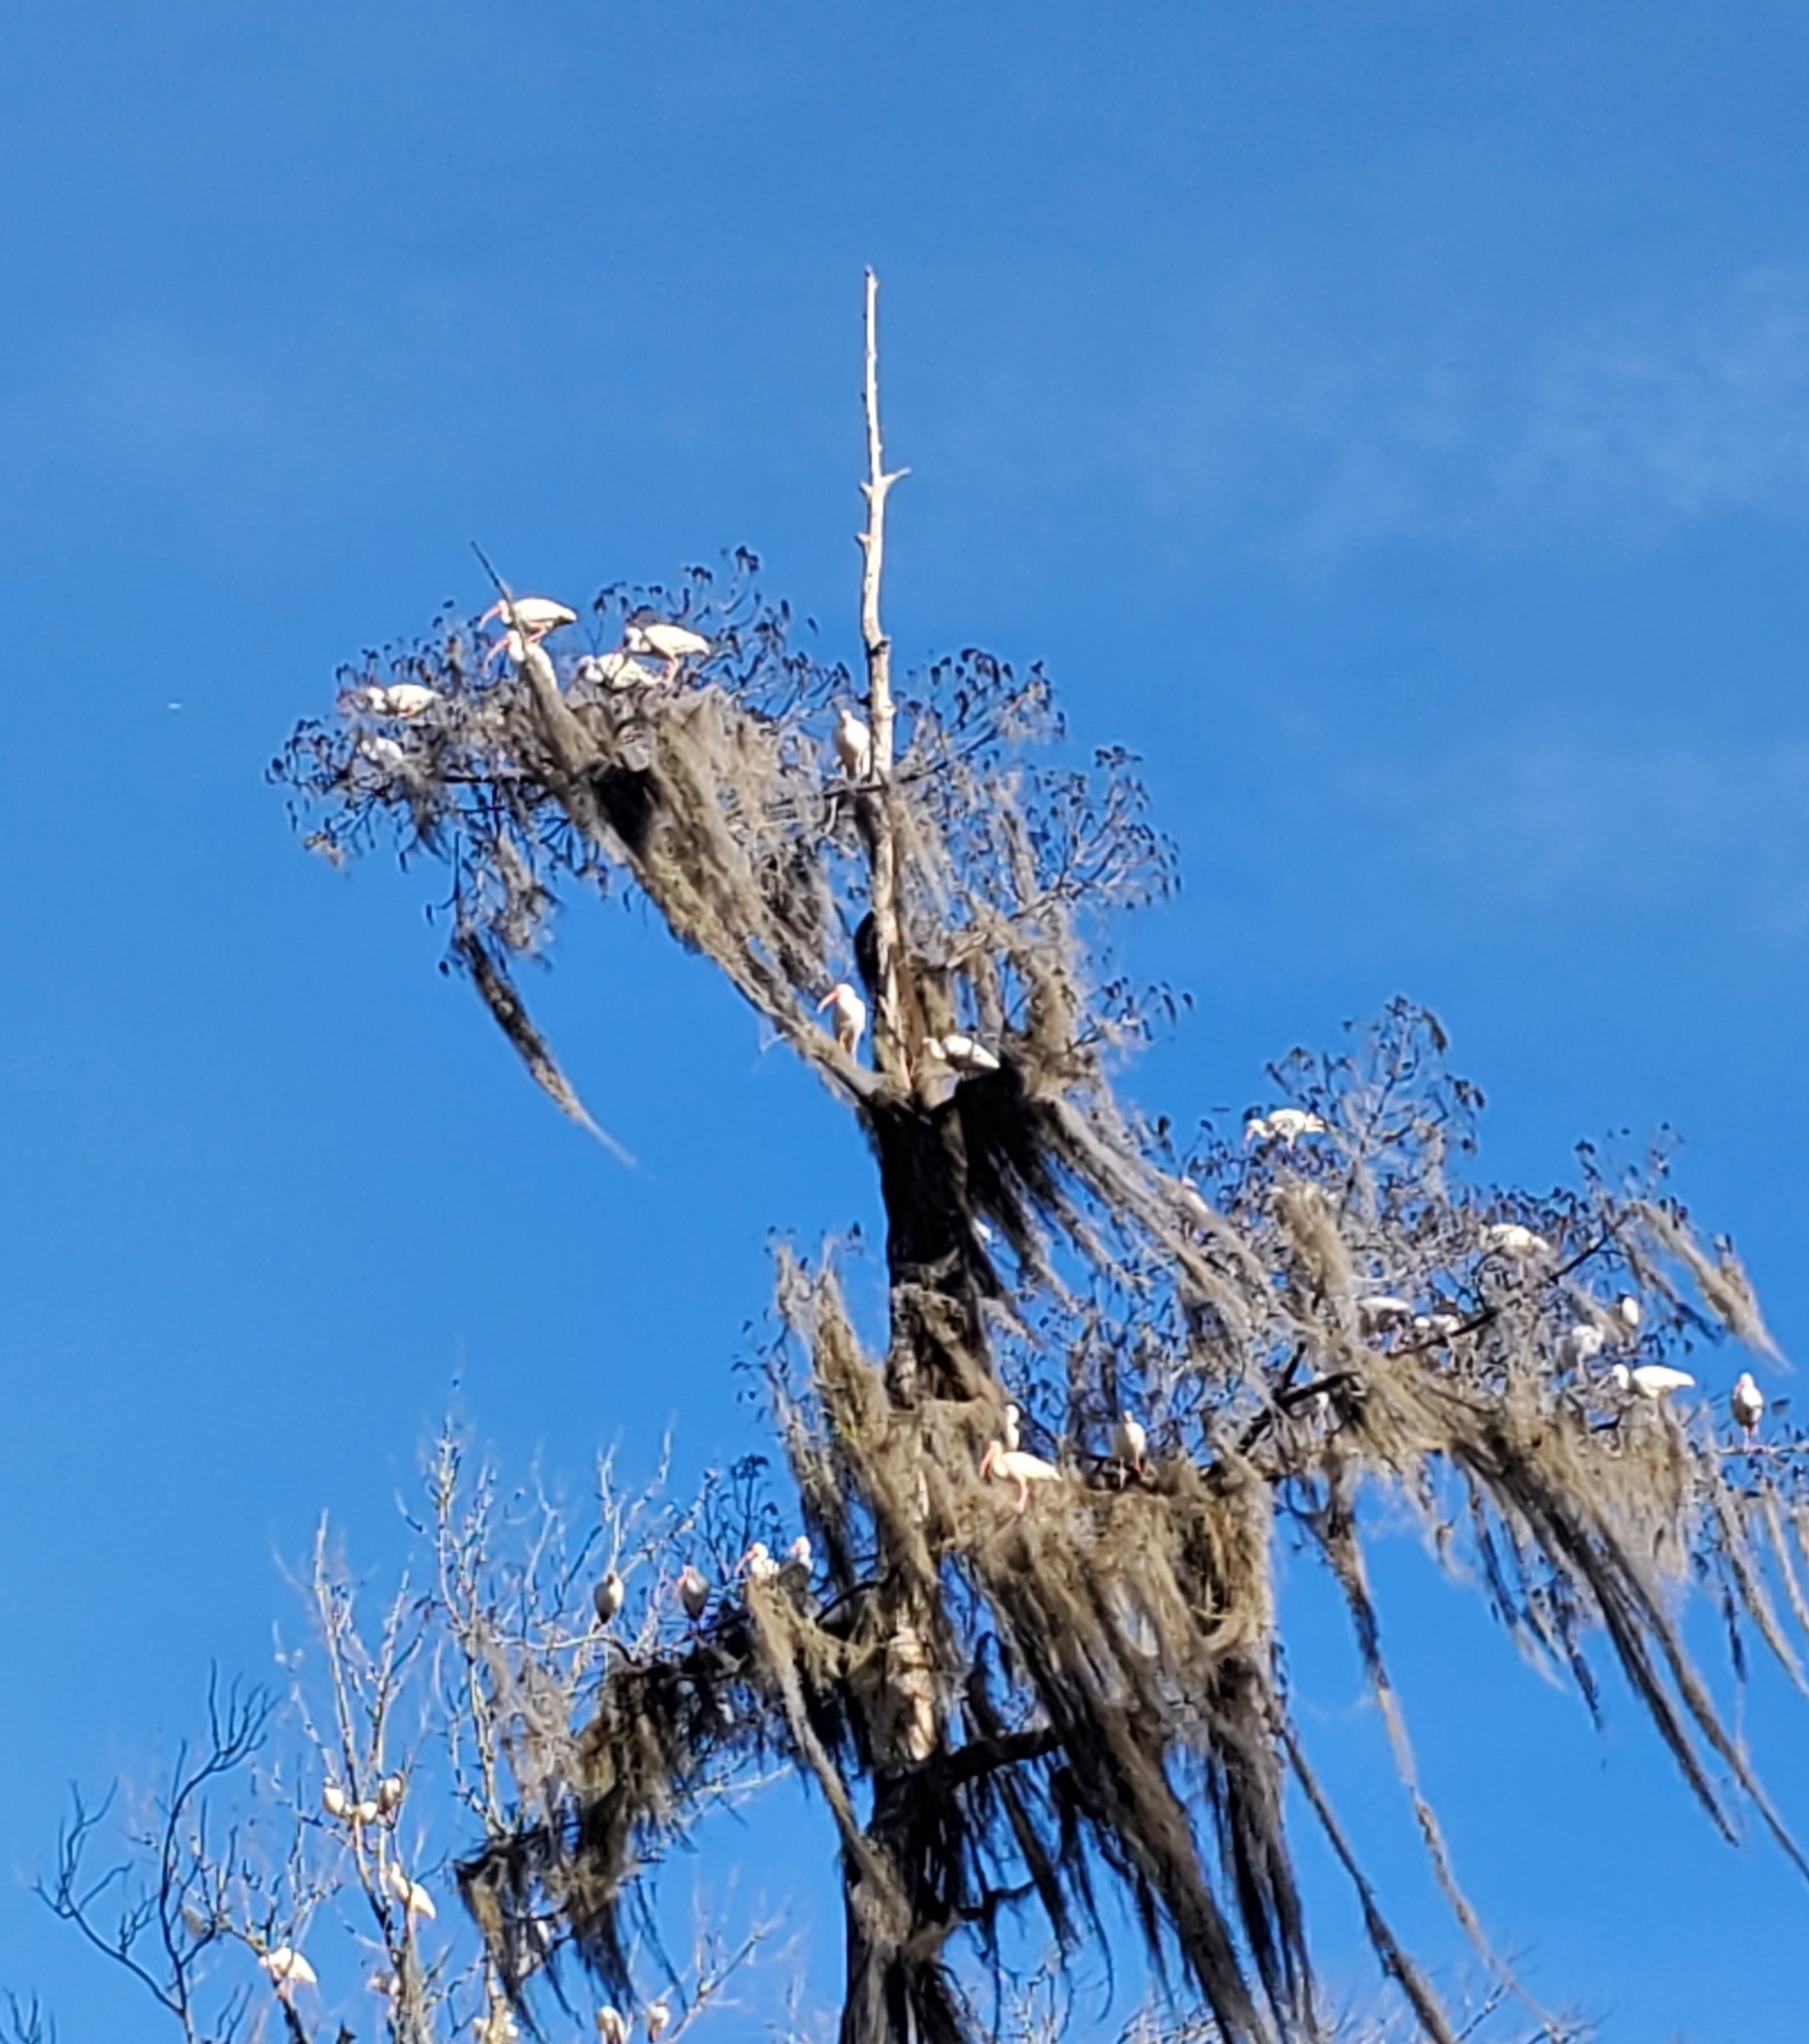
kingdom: Animalia
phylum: Chordata
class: Aves
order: Pelecaniformes
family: Threskiornithidae
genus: Eudocimus
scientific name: Eudocimus albus
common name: White ibis
